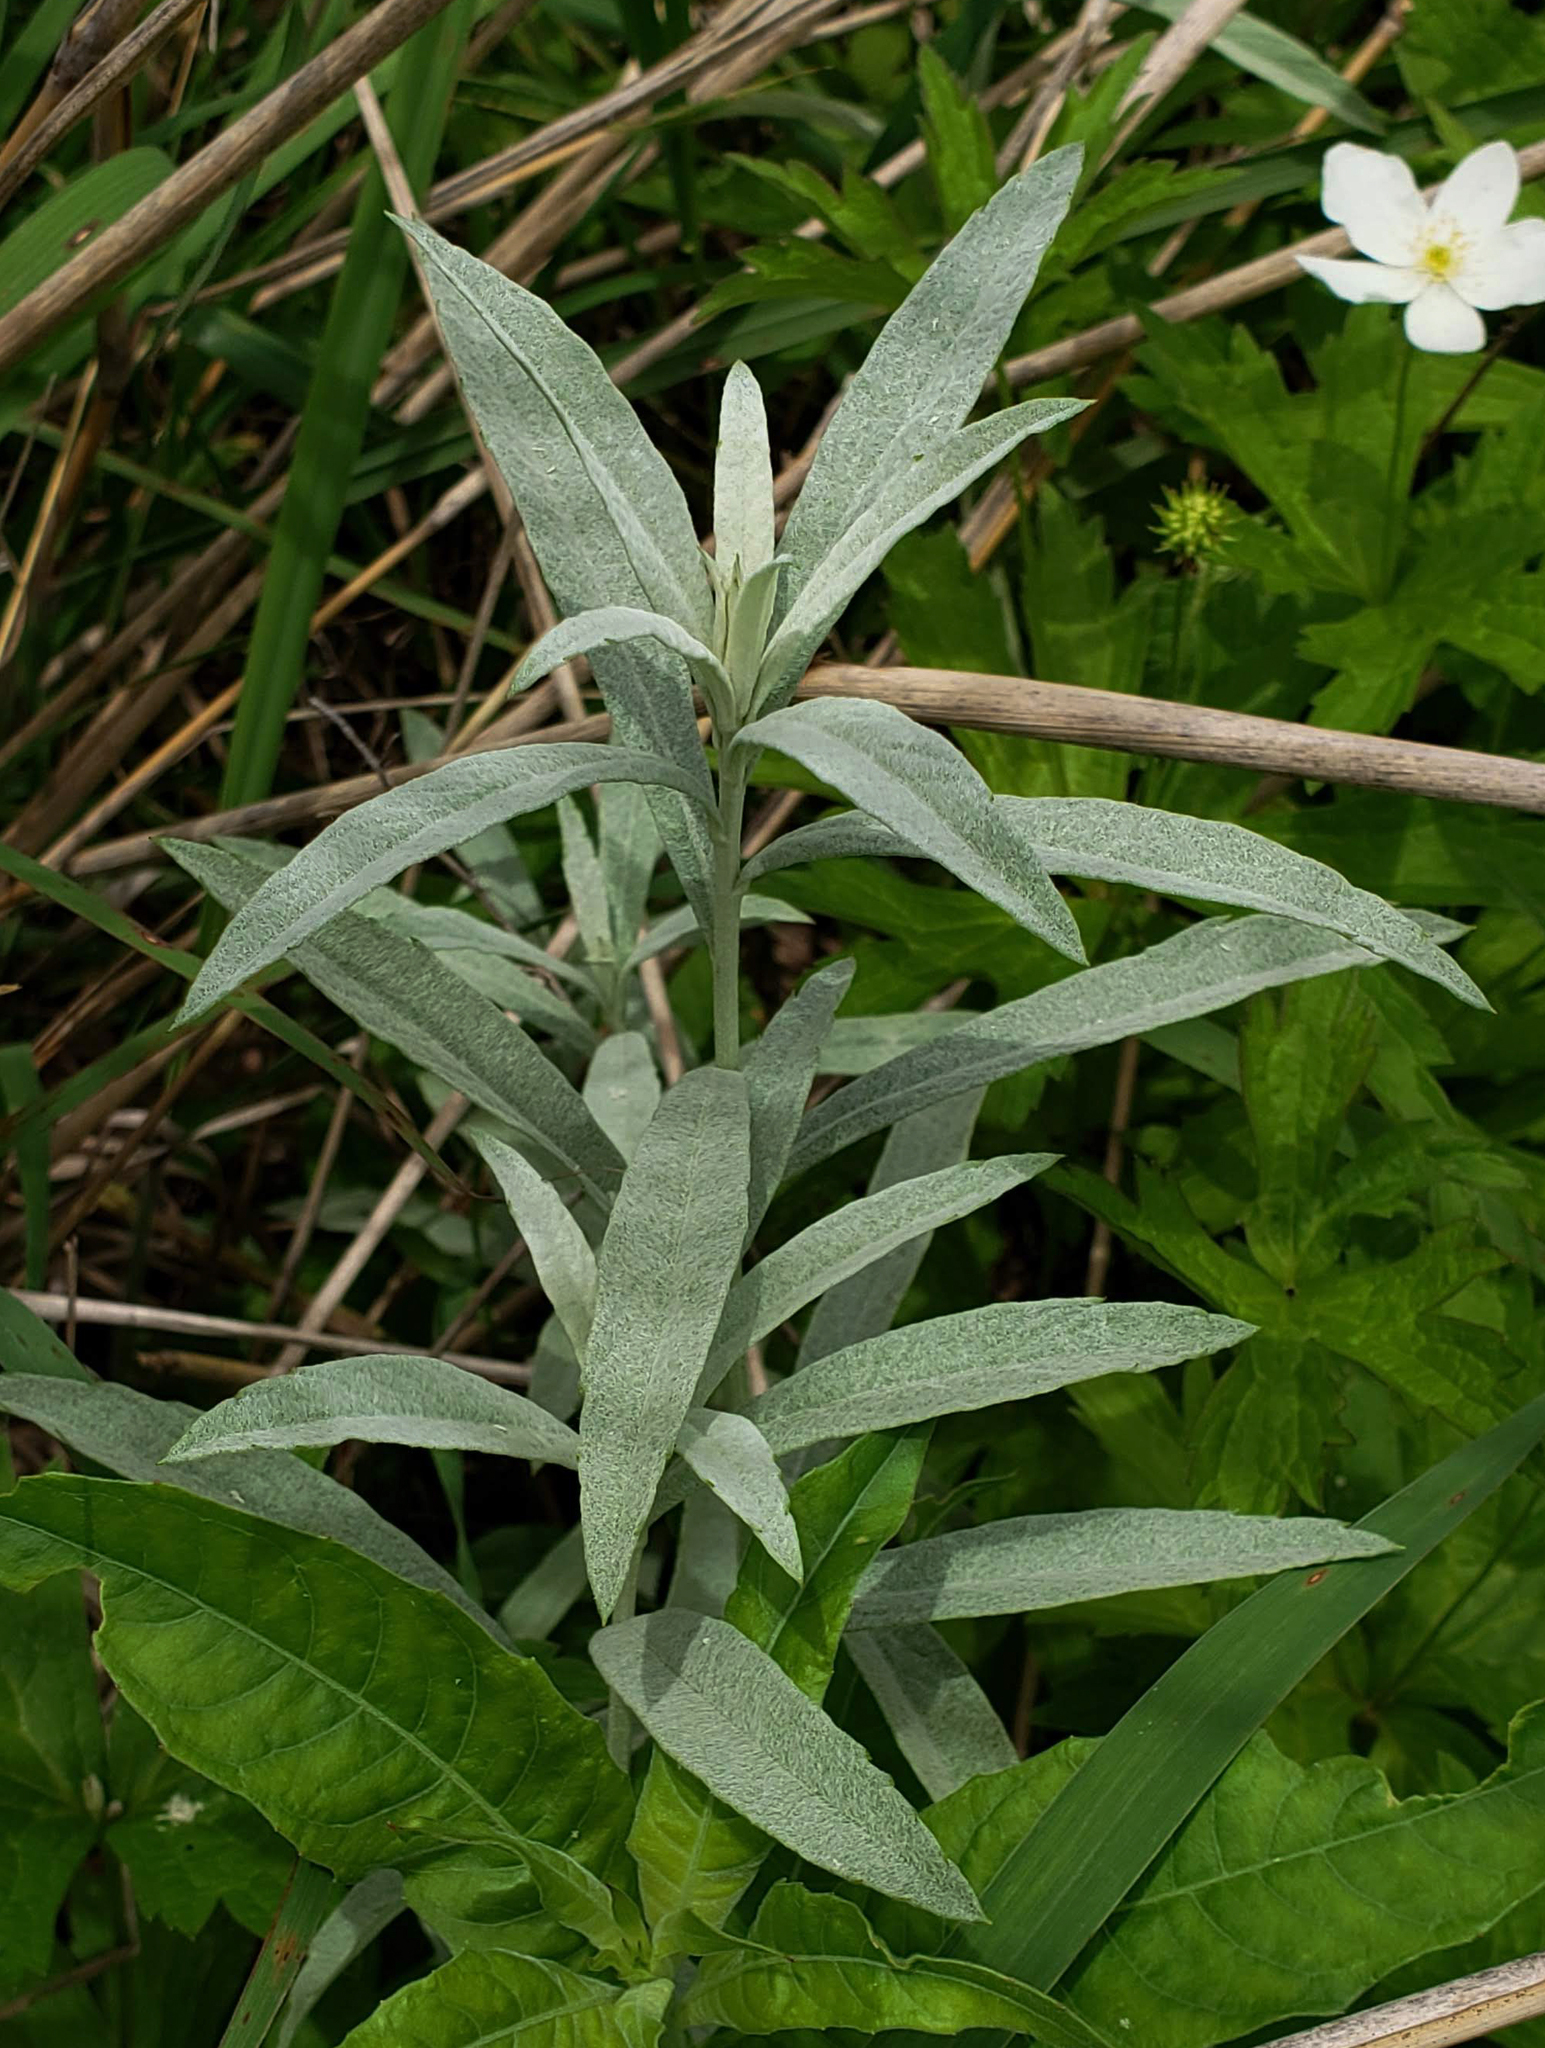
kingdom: Plantae
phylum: Tracheophyta
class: Magnoliopsida
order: Asterales
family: Asteraceae
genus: Artemisia
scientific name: Artemisia ludoviciana
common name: Western mugwort
